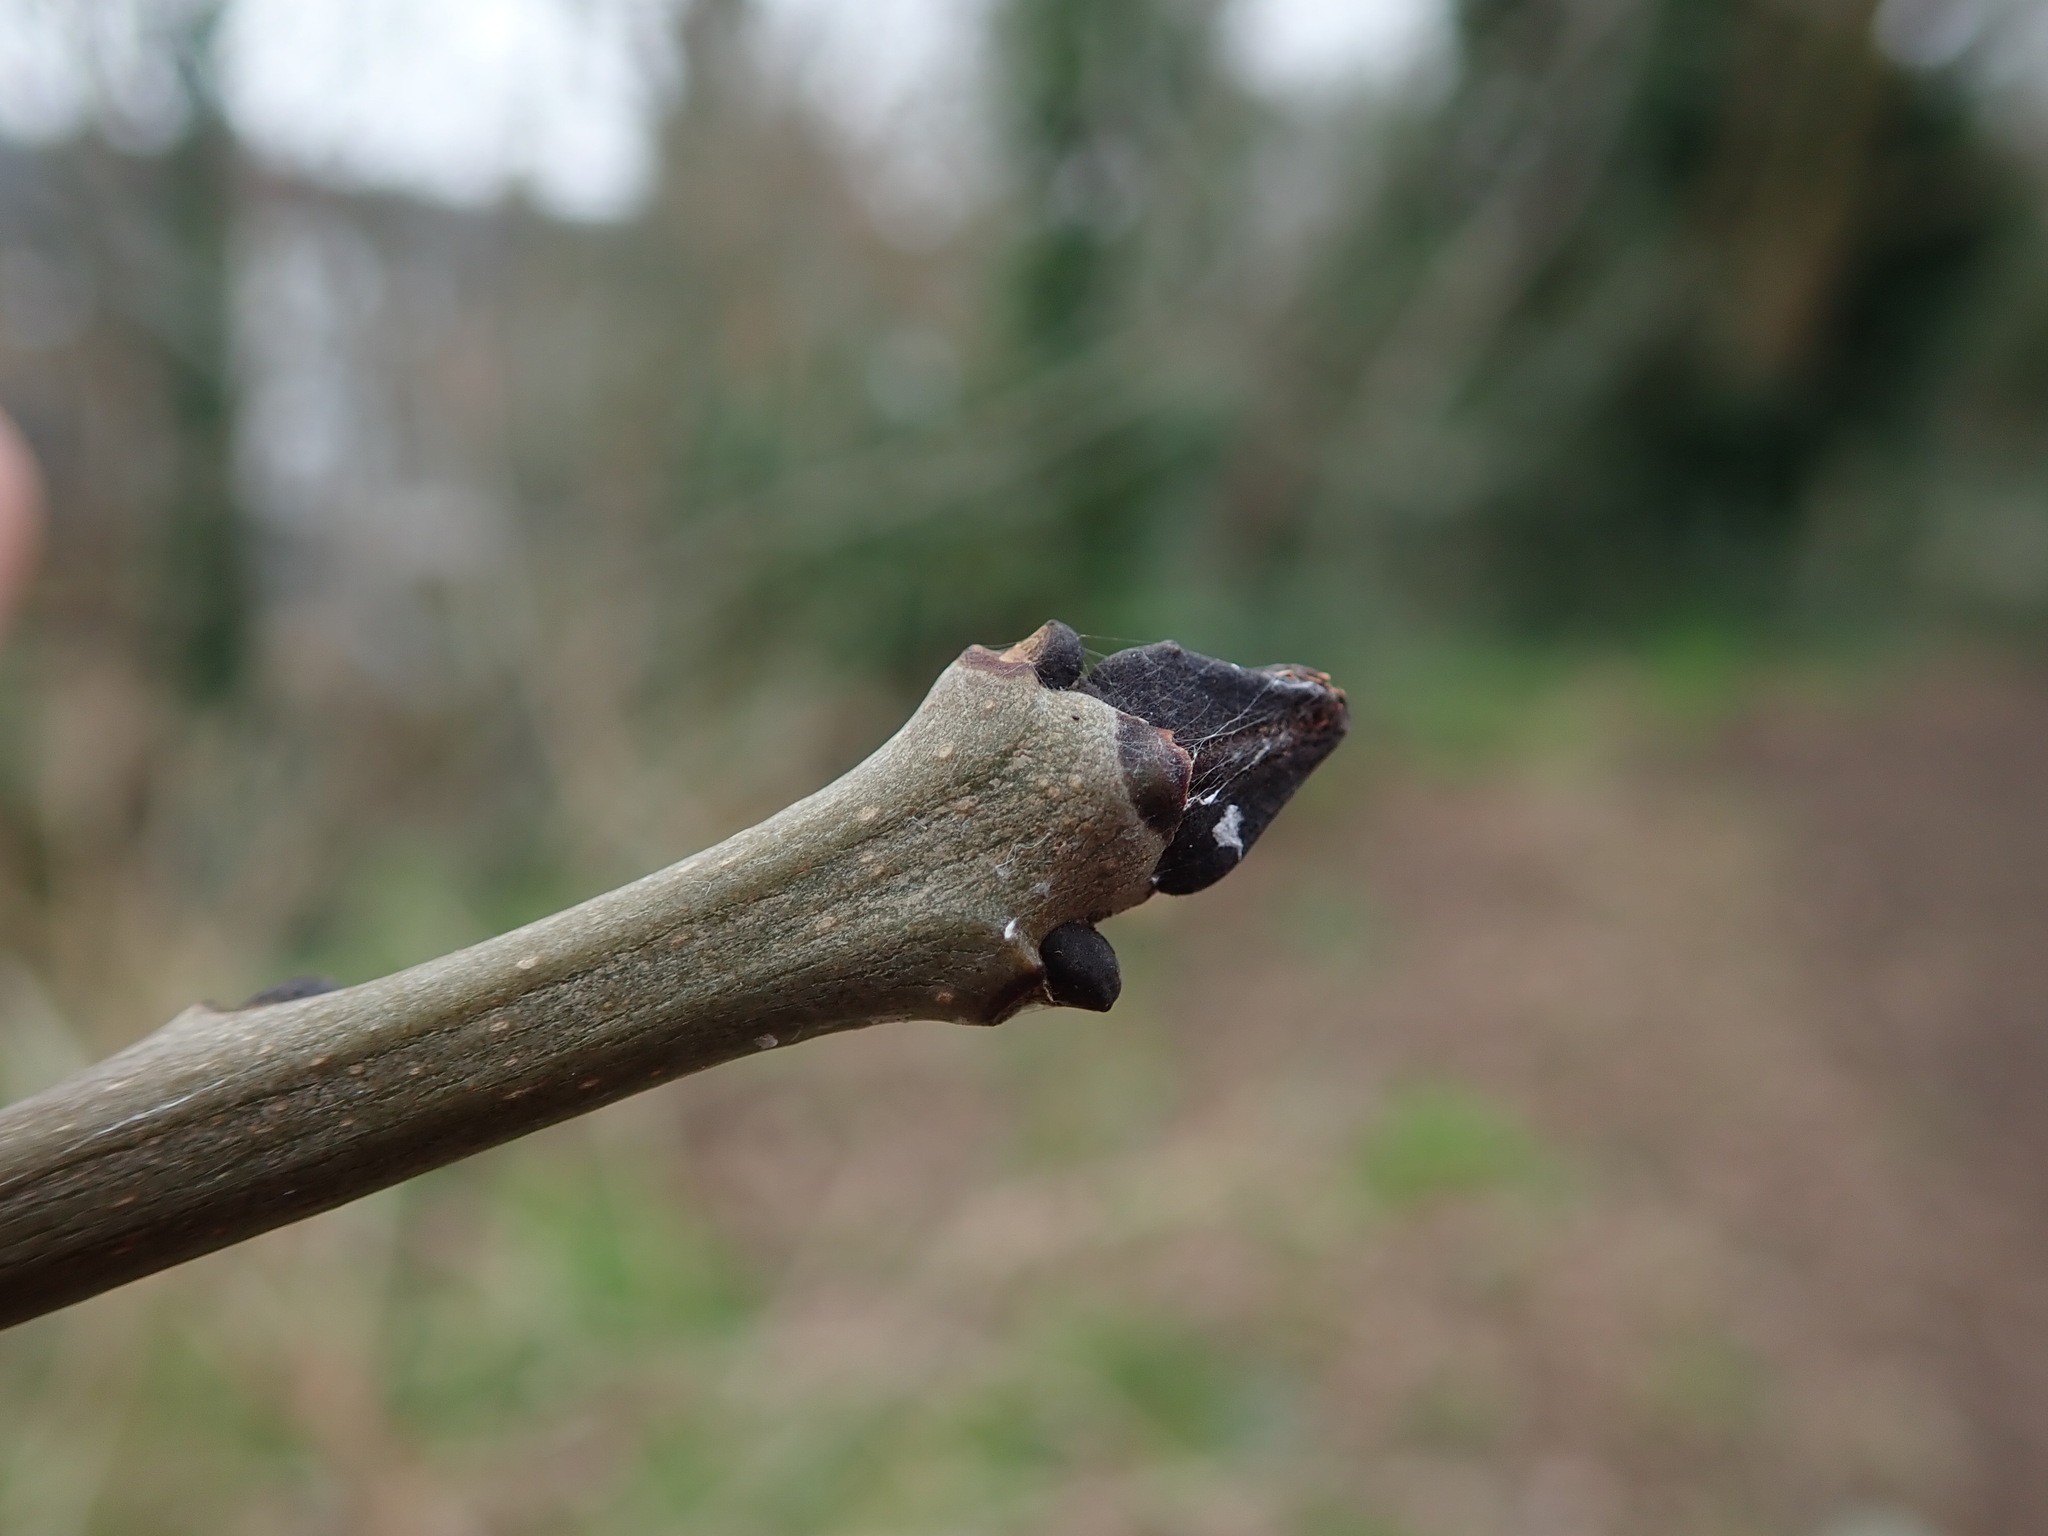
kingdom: Plantae
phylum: Tracheophyta
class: Magnoliopsida
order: Lamiales
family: Oleaceae
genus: Fraxinus
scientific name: Fraxinus excelsior
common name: European ash
